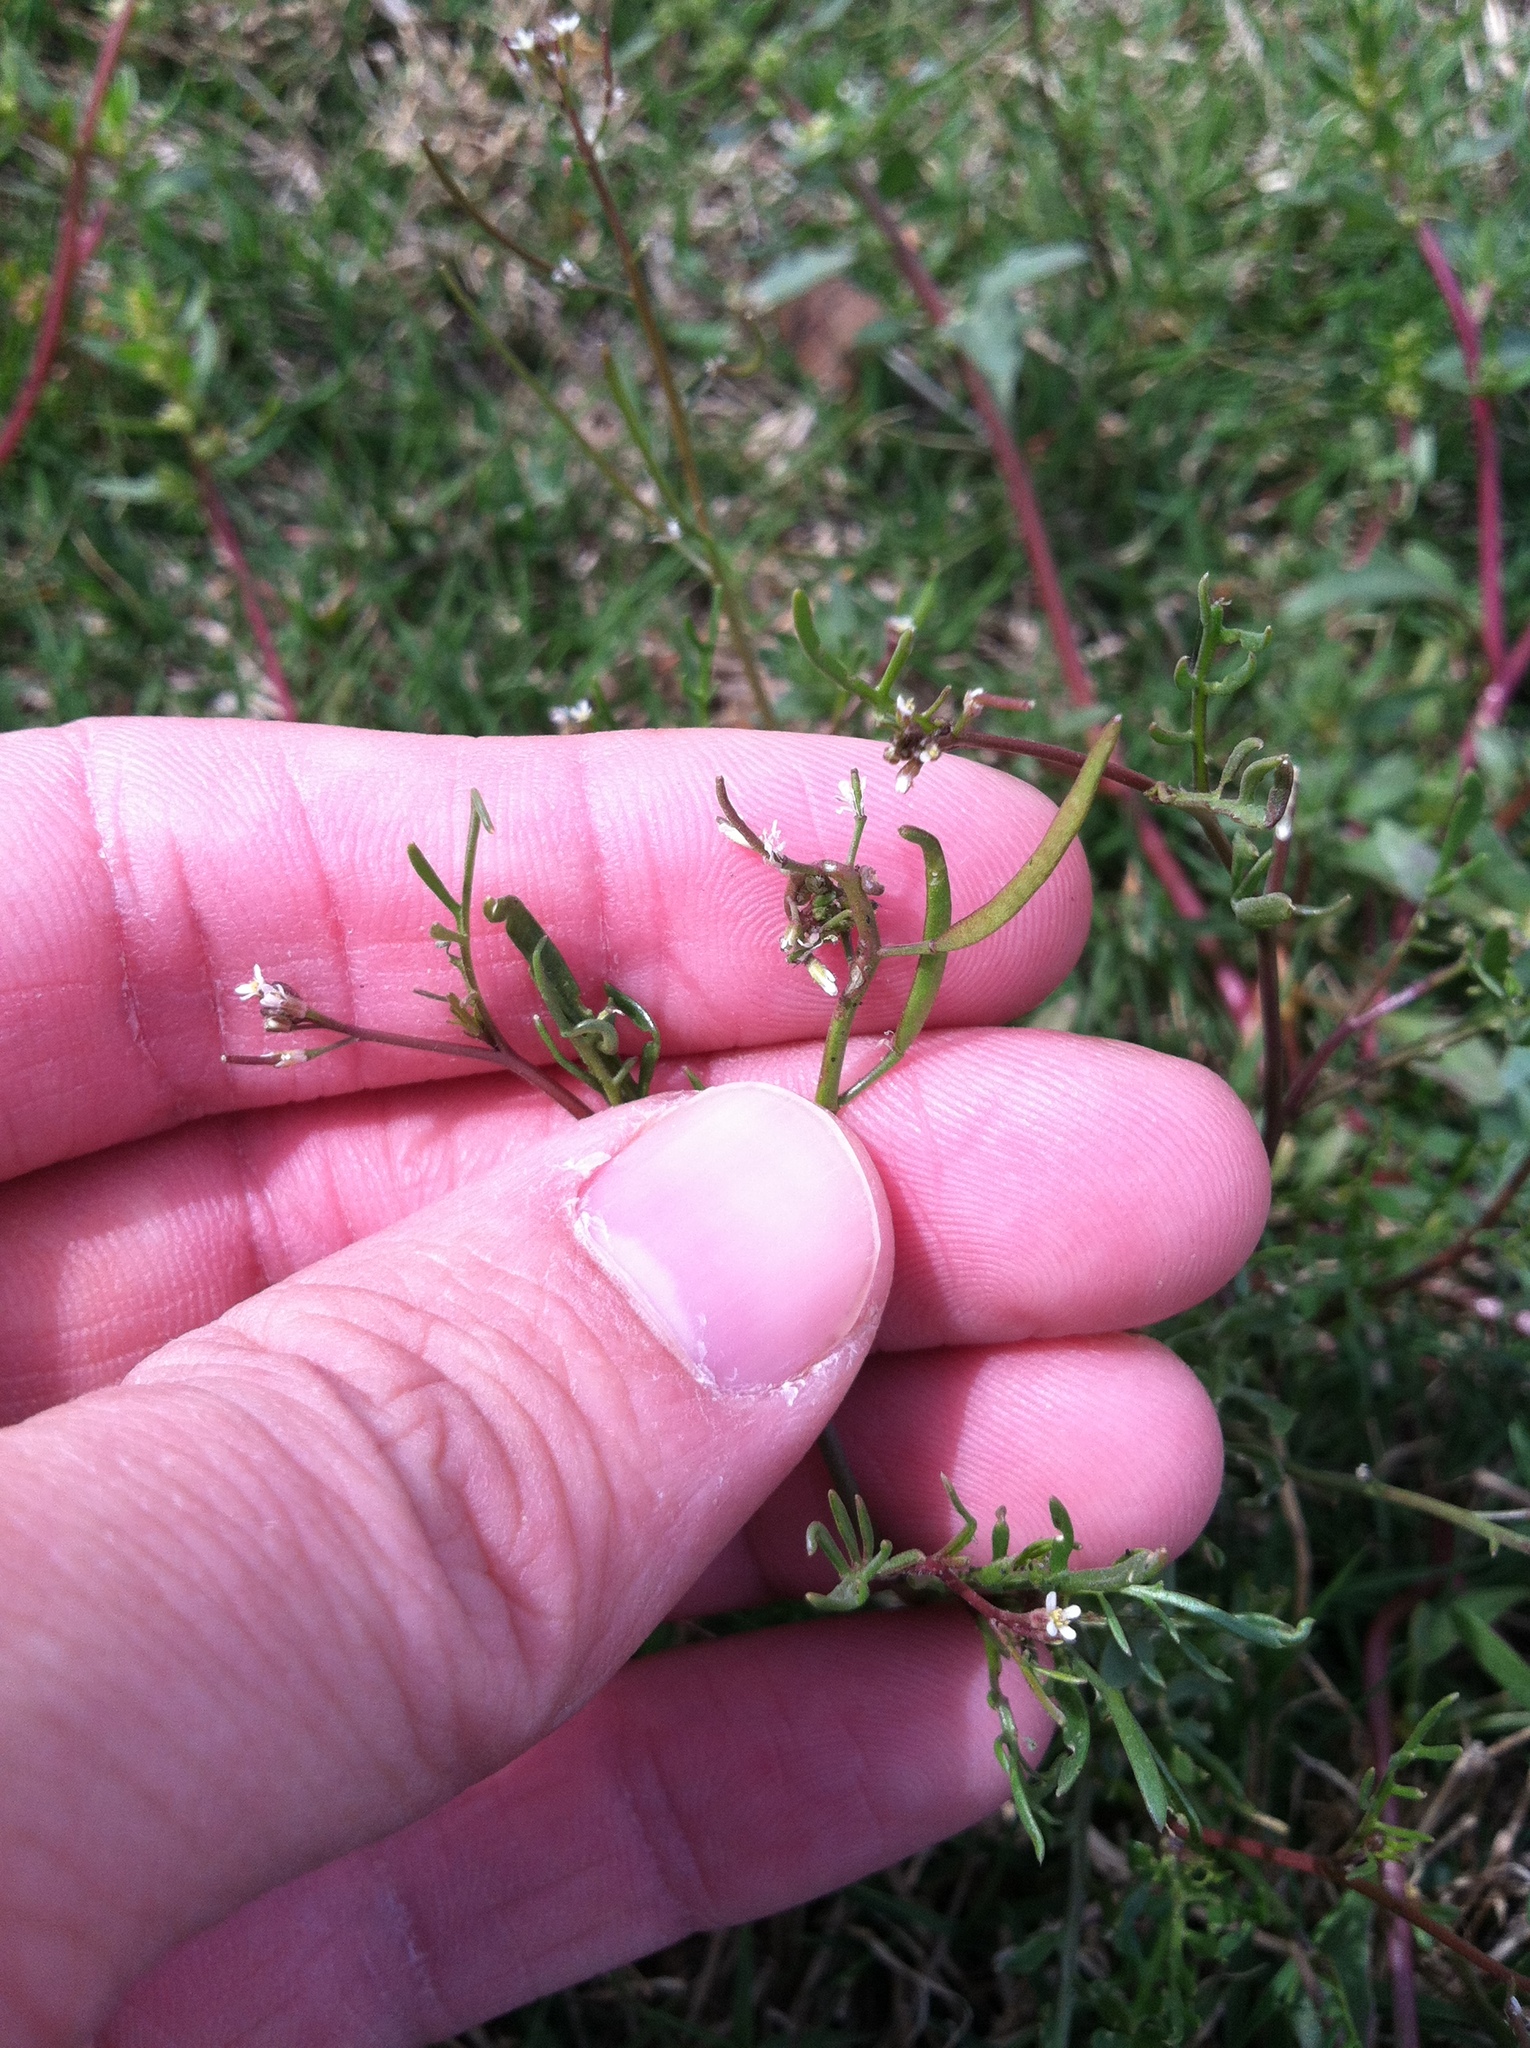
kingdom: Plantae
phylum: Tracheophyta
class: Magnoliopsida
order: Brassicales
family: Brassicaceae
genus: Cardamine
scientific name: Cardamine parviflora
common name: Sand bittercress
